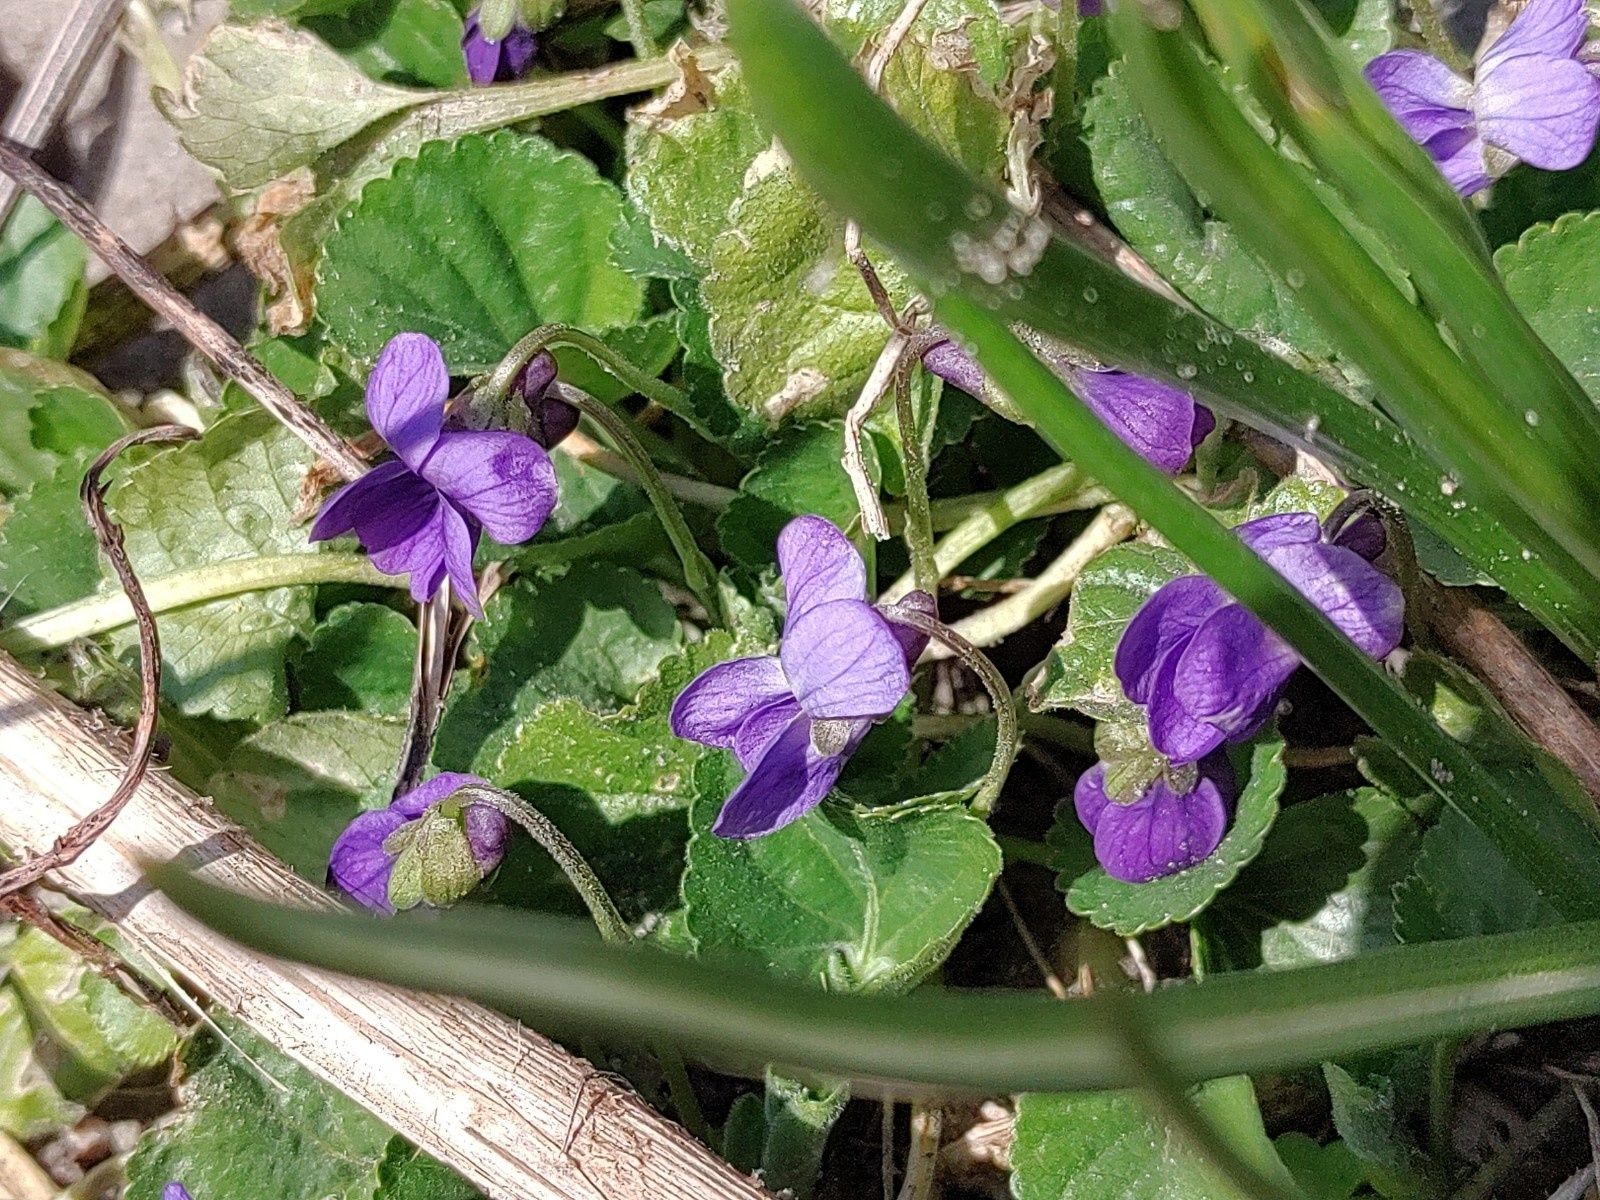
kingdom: Plantae
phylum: Tracheophyta
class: Magnoliopsida
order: Malpighiales
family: Violaceae
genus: Viola
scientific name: Viola odorata
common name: Sweet violet
